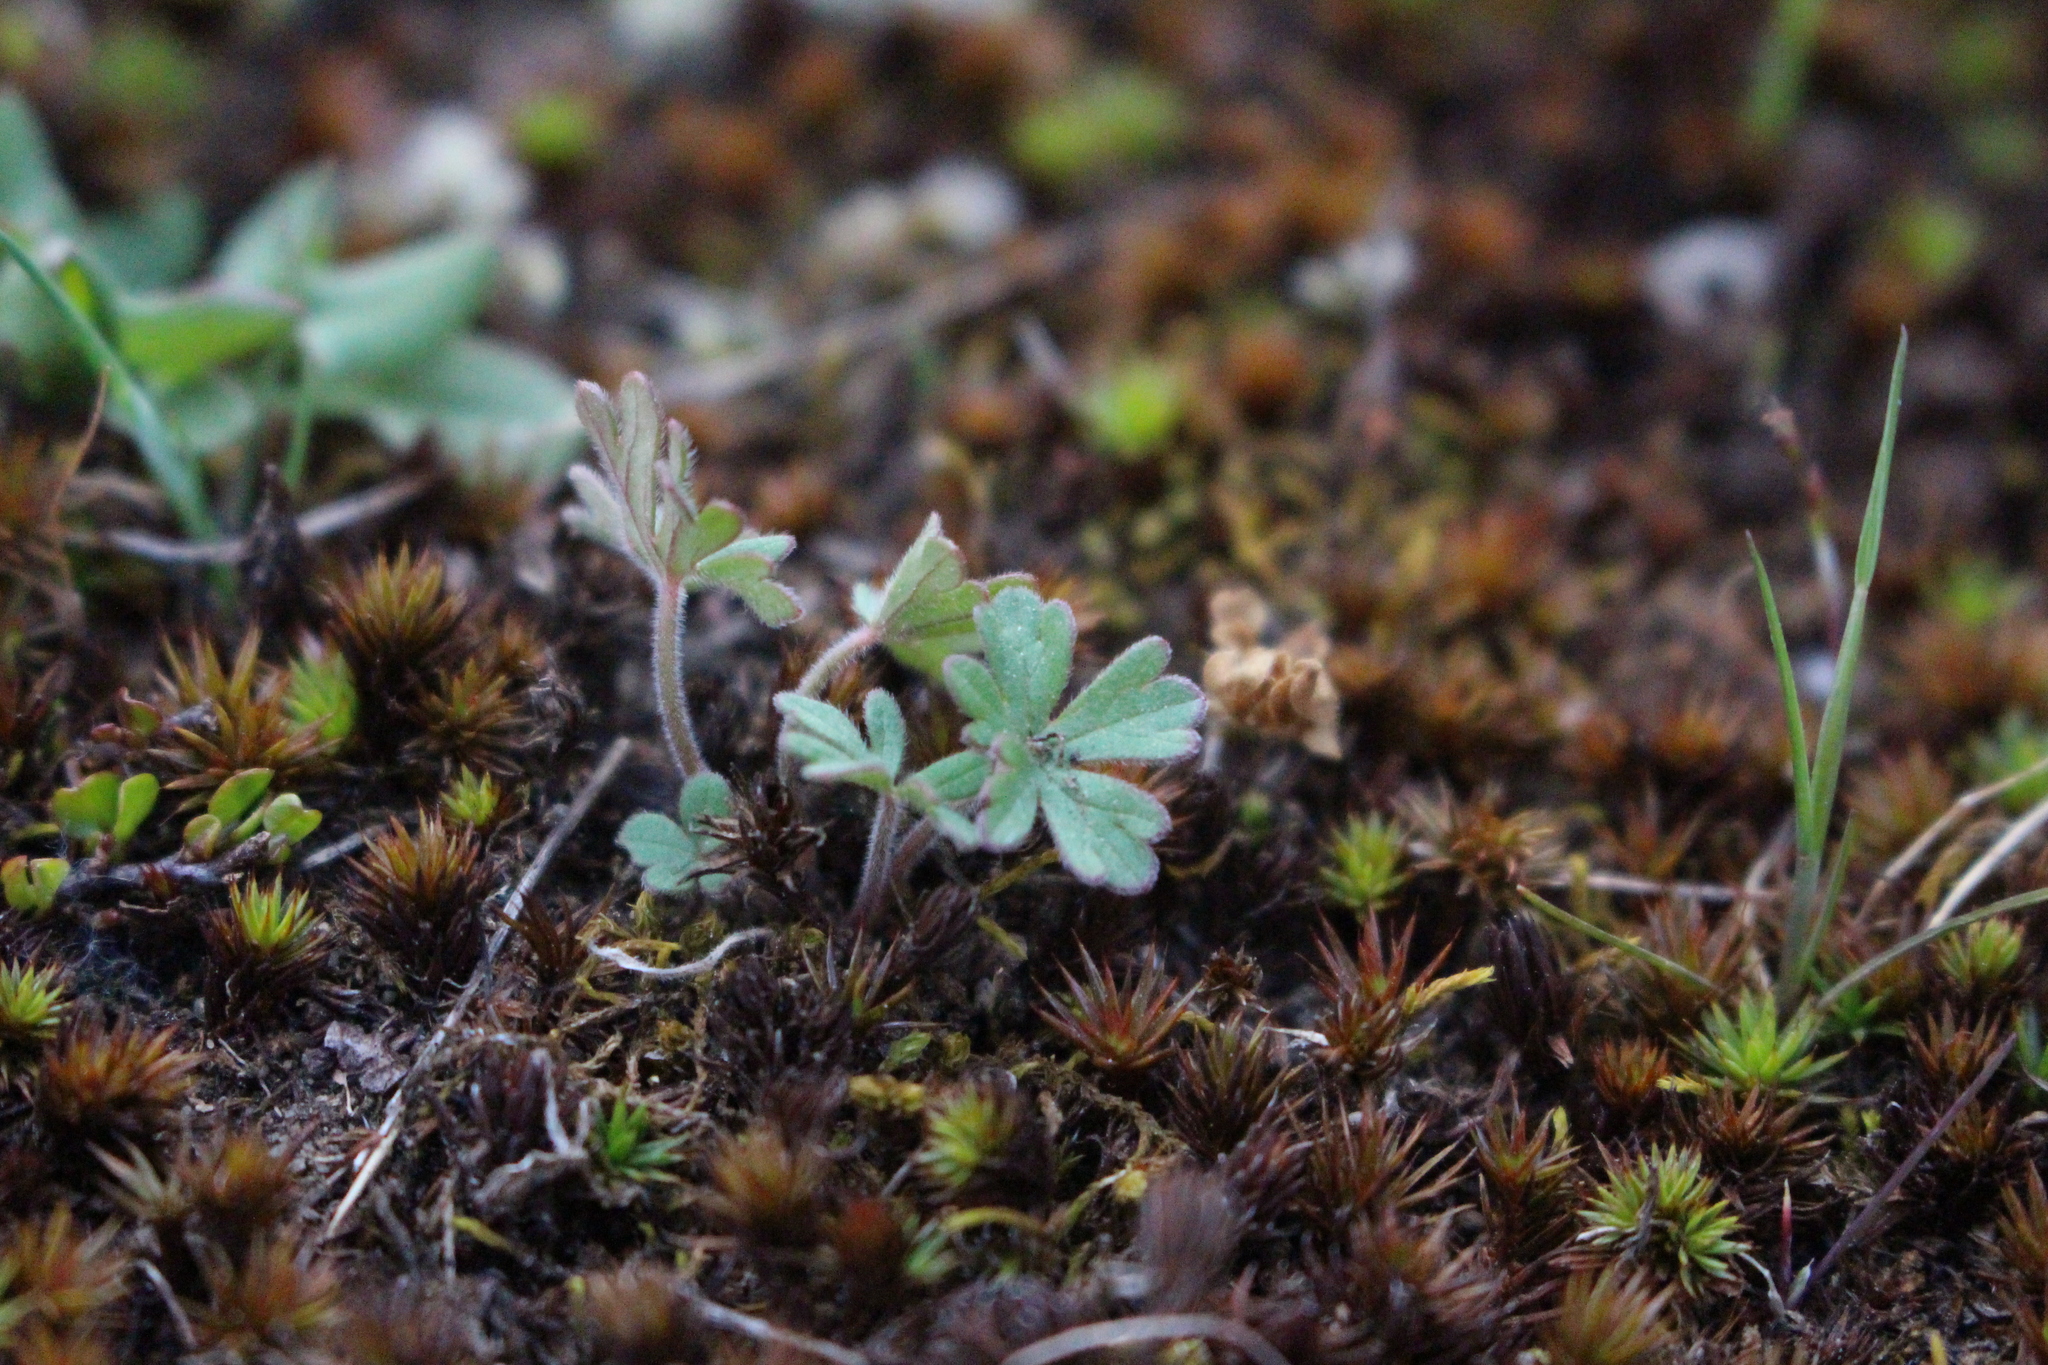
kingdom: Plantae
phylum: Tracheophyta
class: Magnoliopsida
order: Geraniales
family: Geraniaceae
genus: Geranium
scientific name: Geranium solanderi
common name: Solander's geranium
